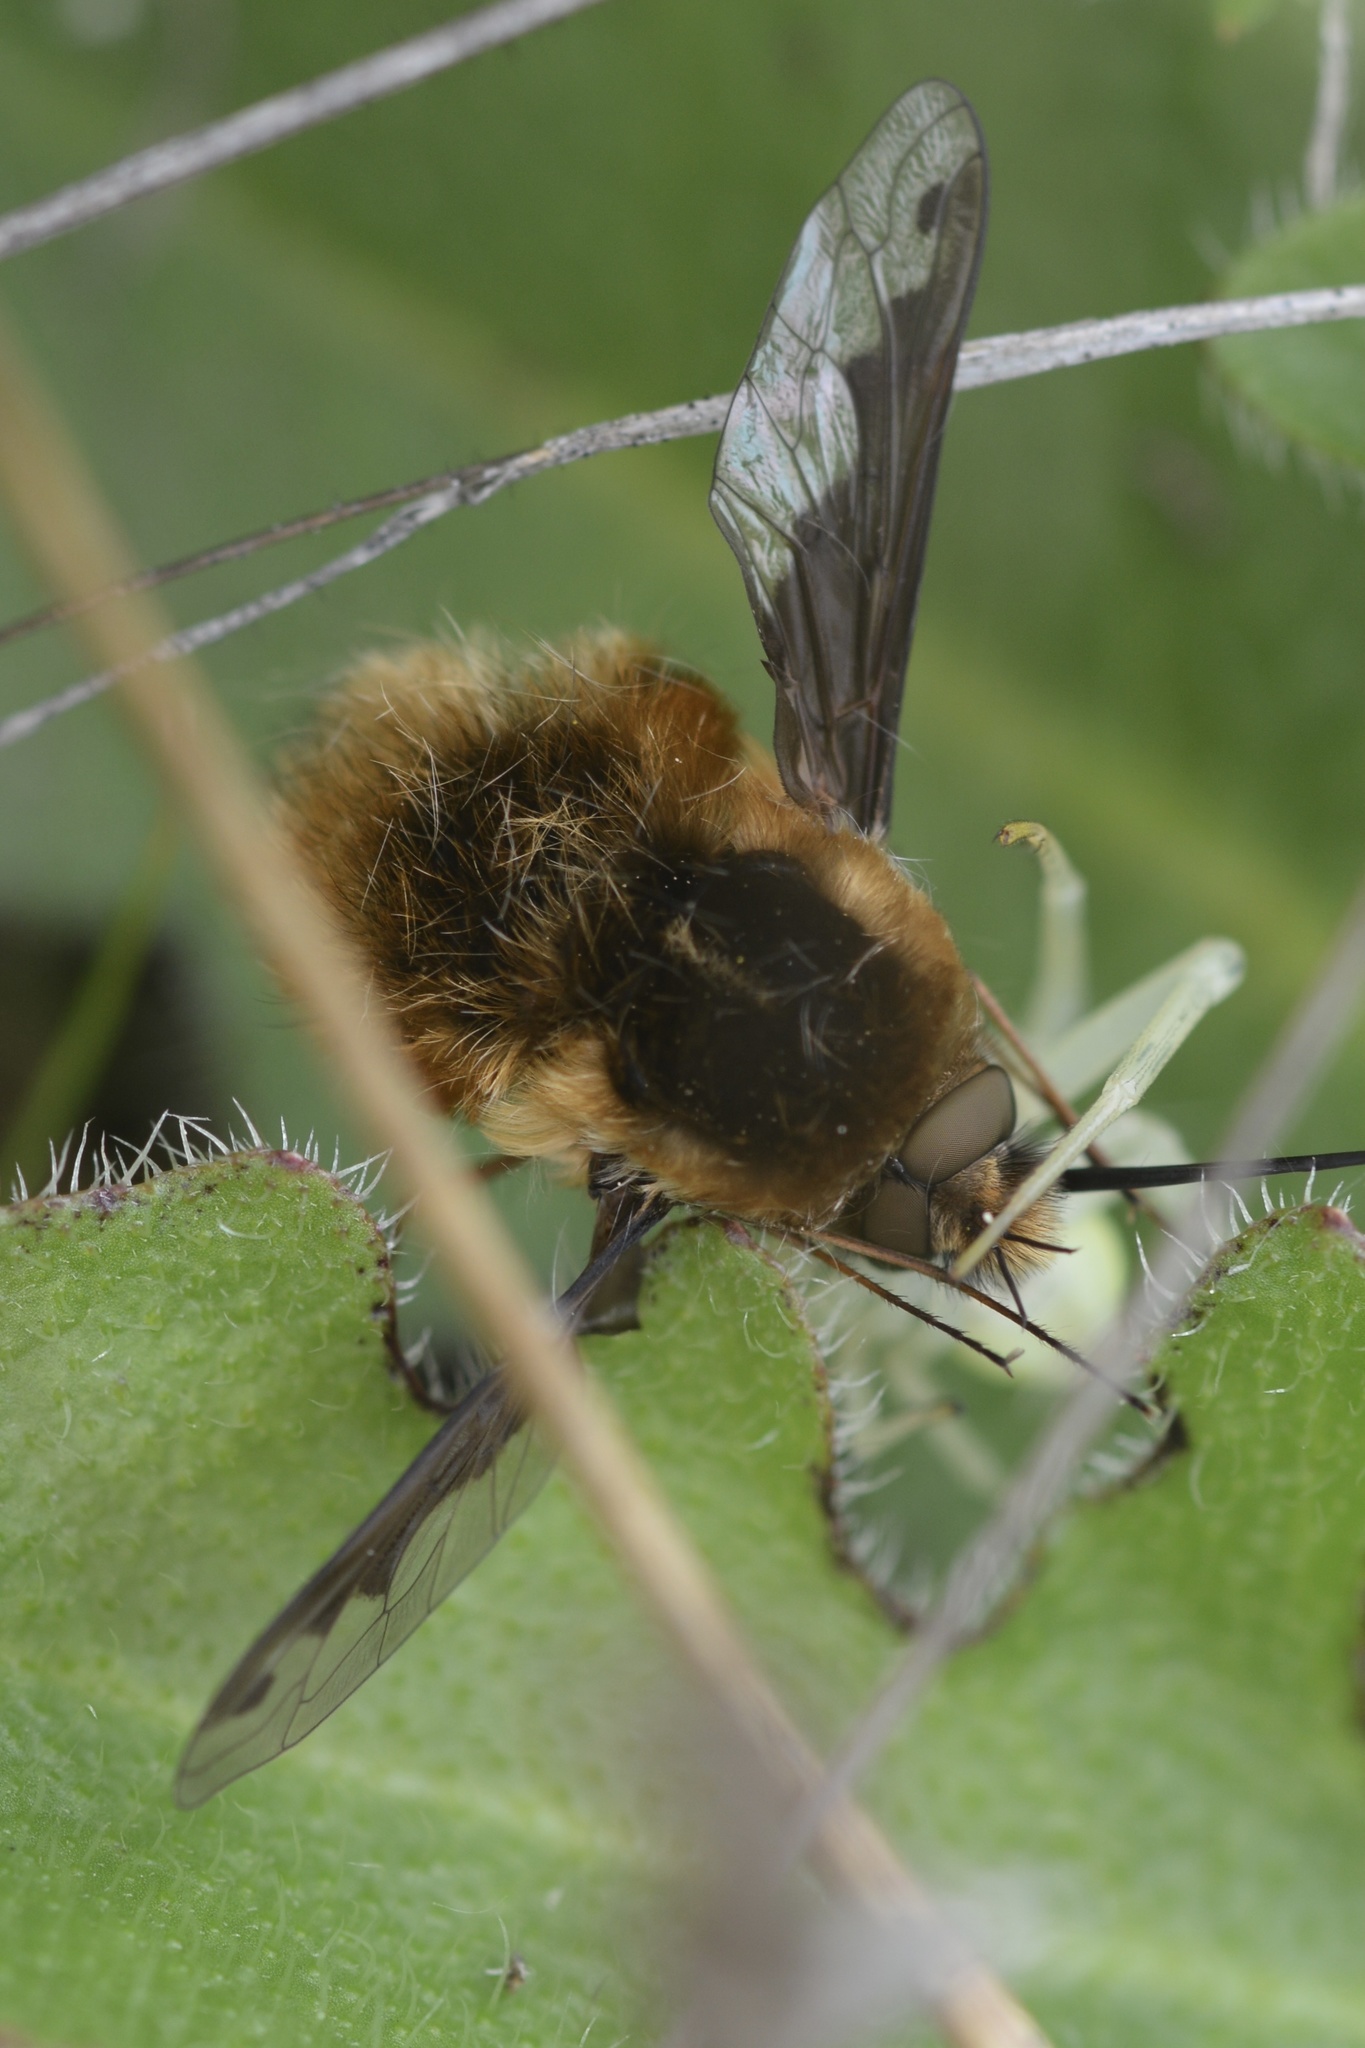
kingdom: Animalia
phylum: Arthropoda
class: Insecta
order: Diptera
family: Bombyliidae
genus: Bombylius
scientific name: Bombylius major
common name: Bee fly
